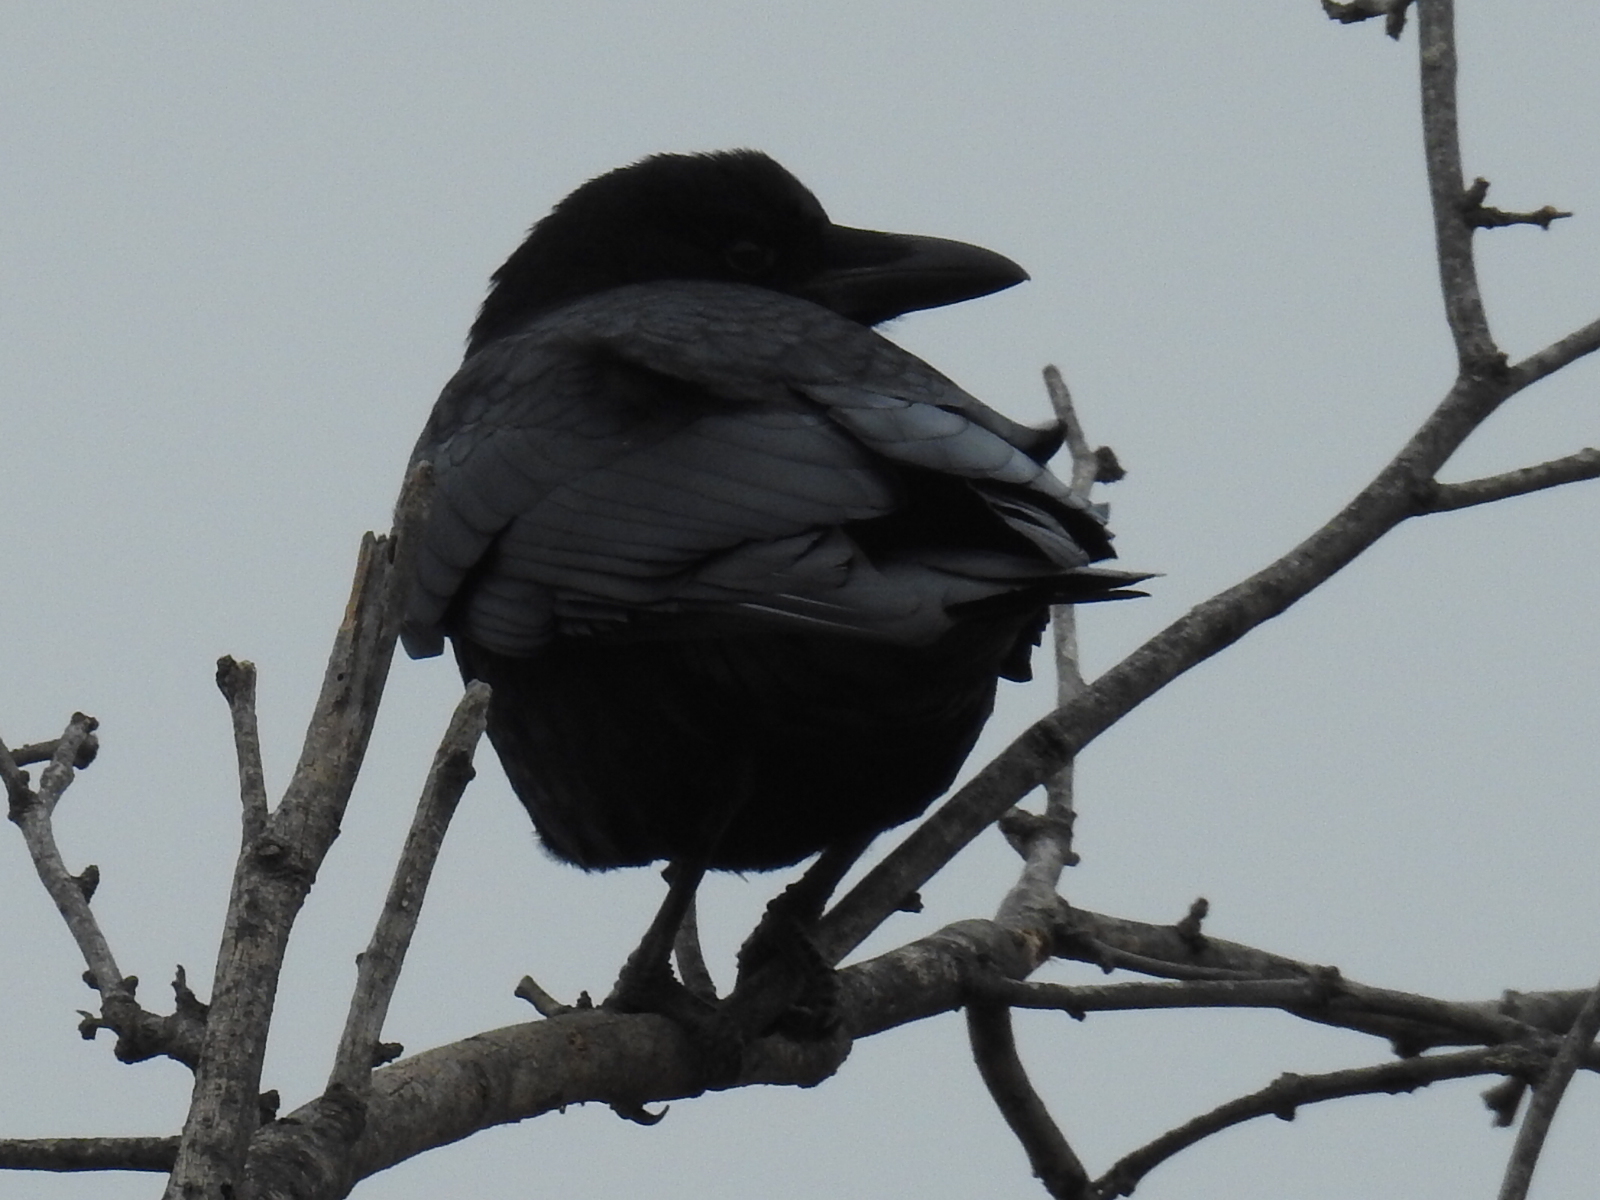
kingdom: Animalia
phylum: Chordata
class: Aves
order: Passeriformes
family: Corvidae
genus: Corvus
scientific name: Corvus brachyrhynchos
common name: American crow
